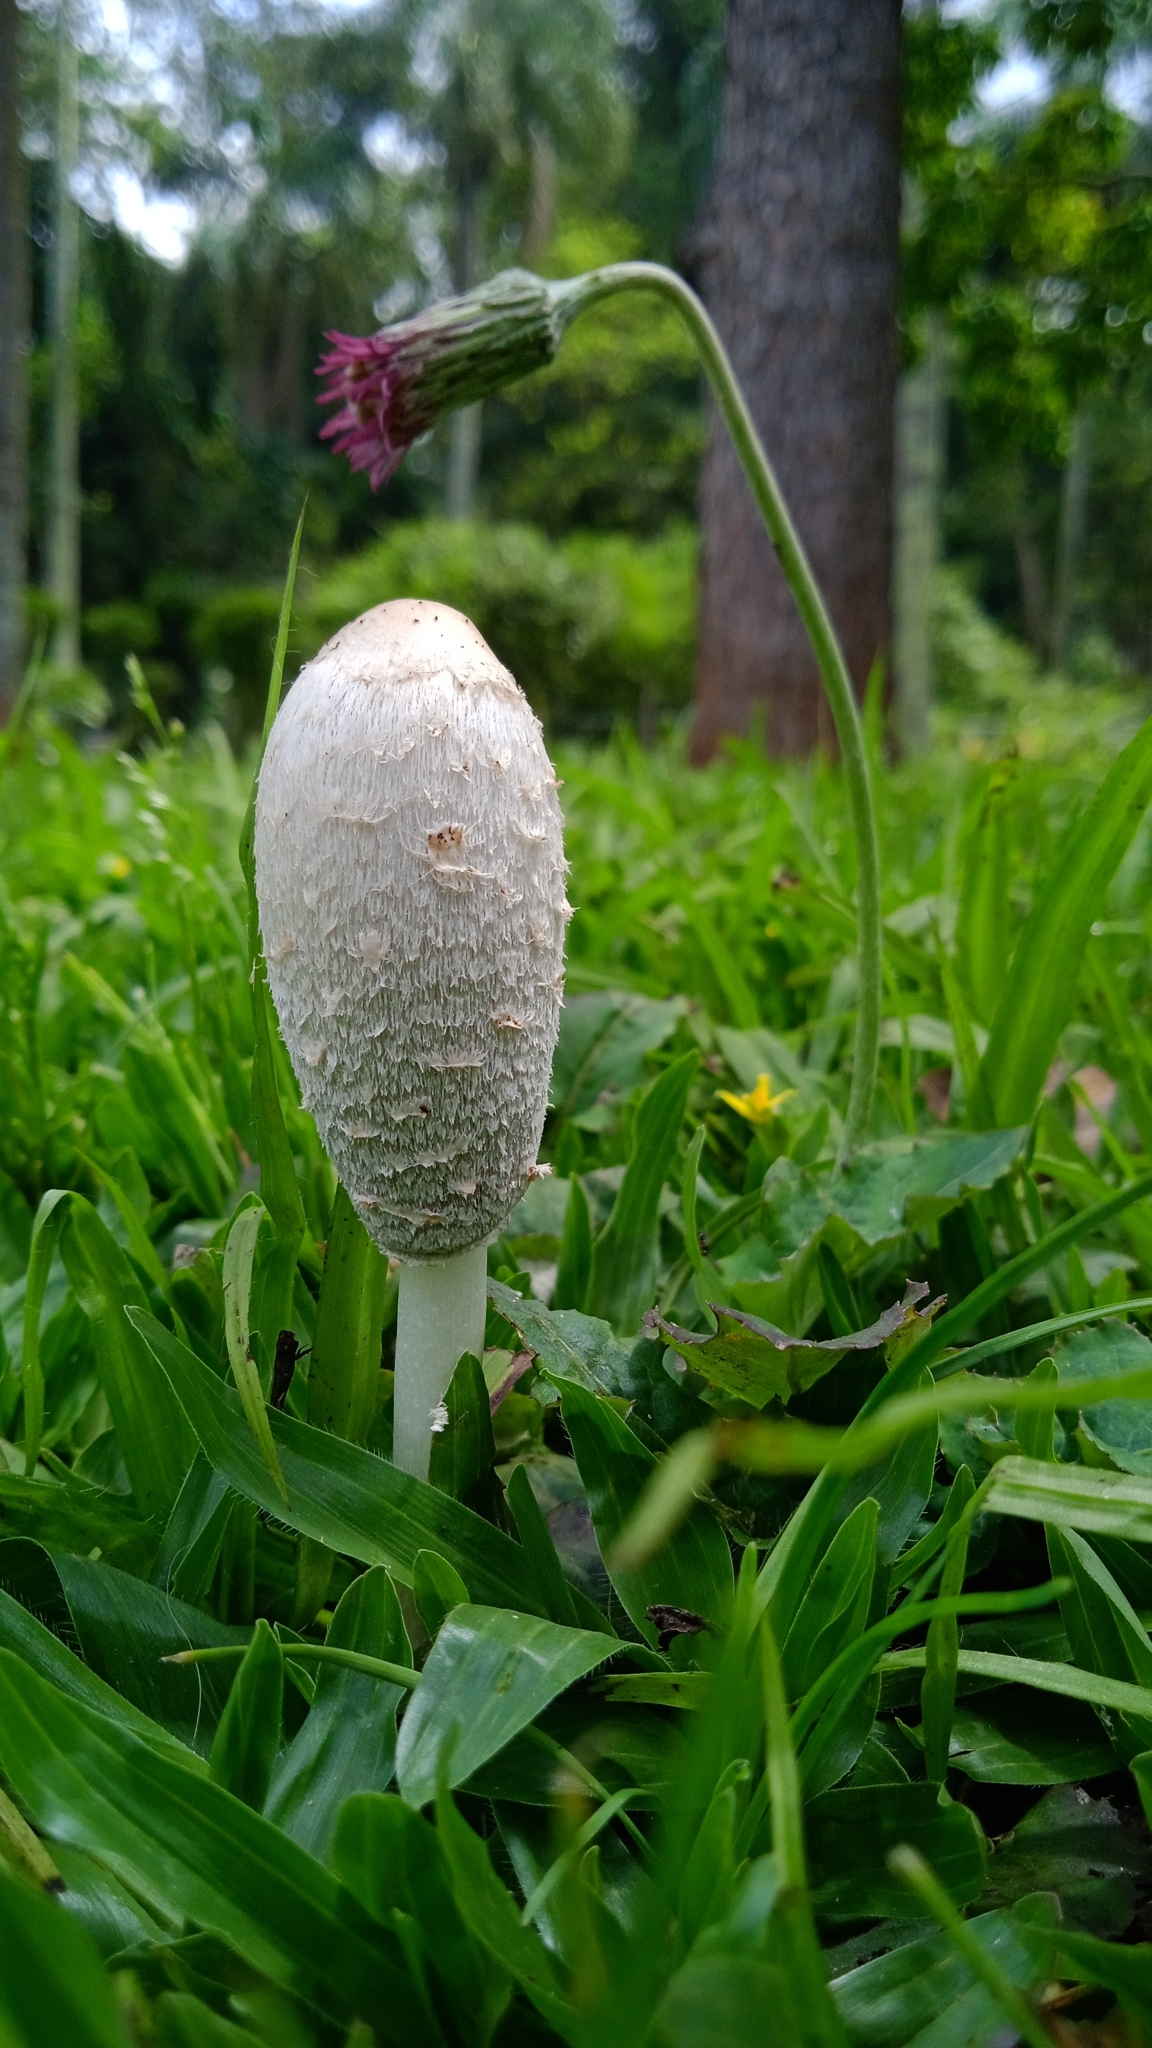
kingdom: Fungi
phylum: Basidiomycota
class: Agaricomycetes
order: Agaricales
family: Agaricaceae
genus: Coprinus
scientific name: Coprinus comatus
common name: Lawyer's wig
